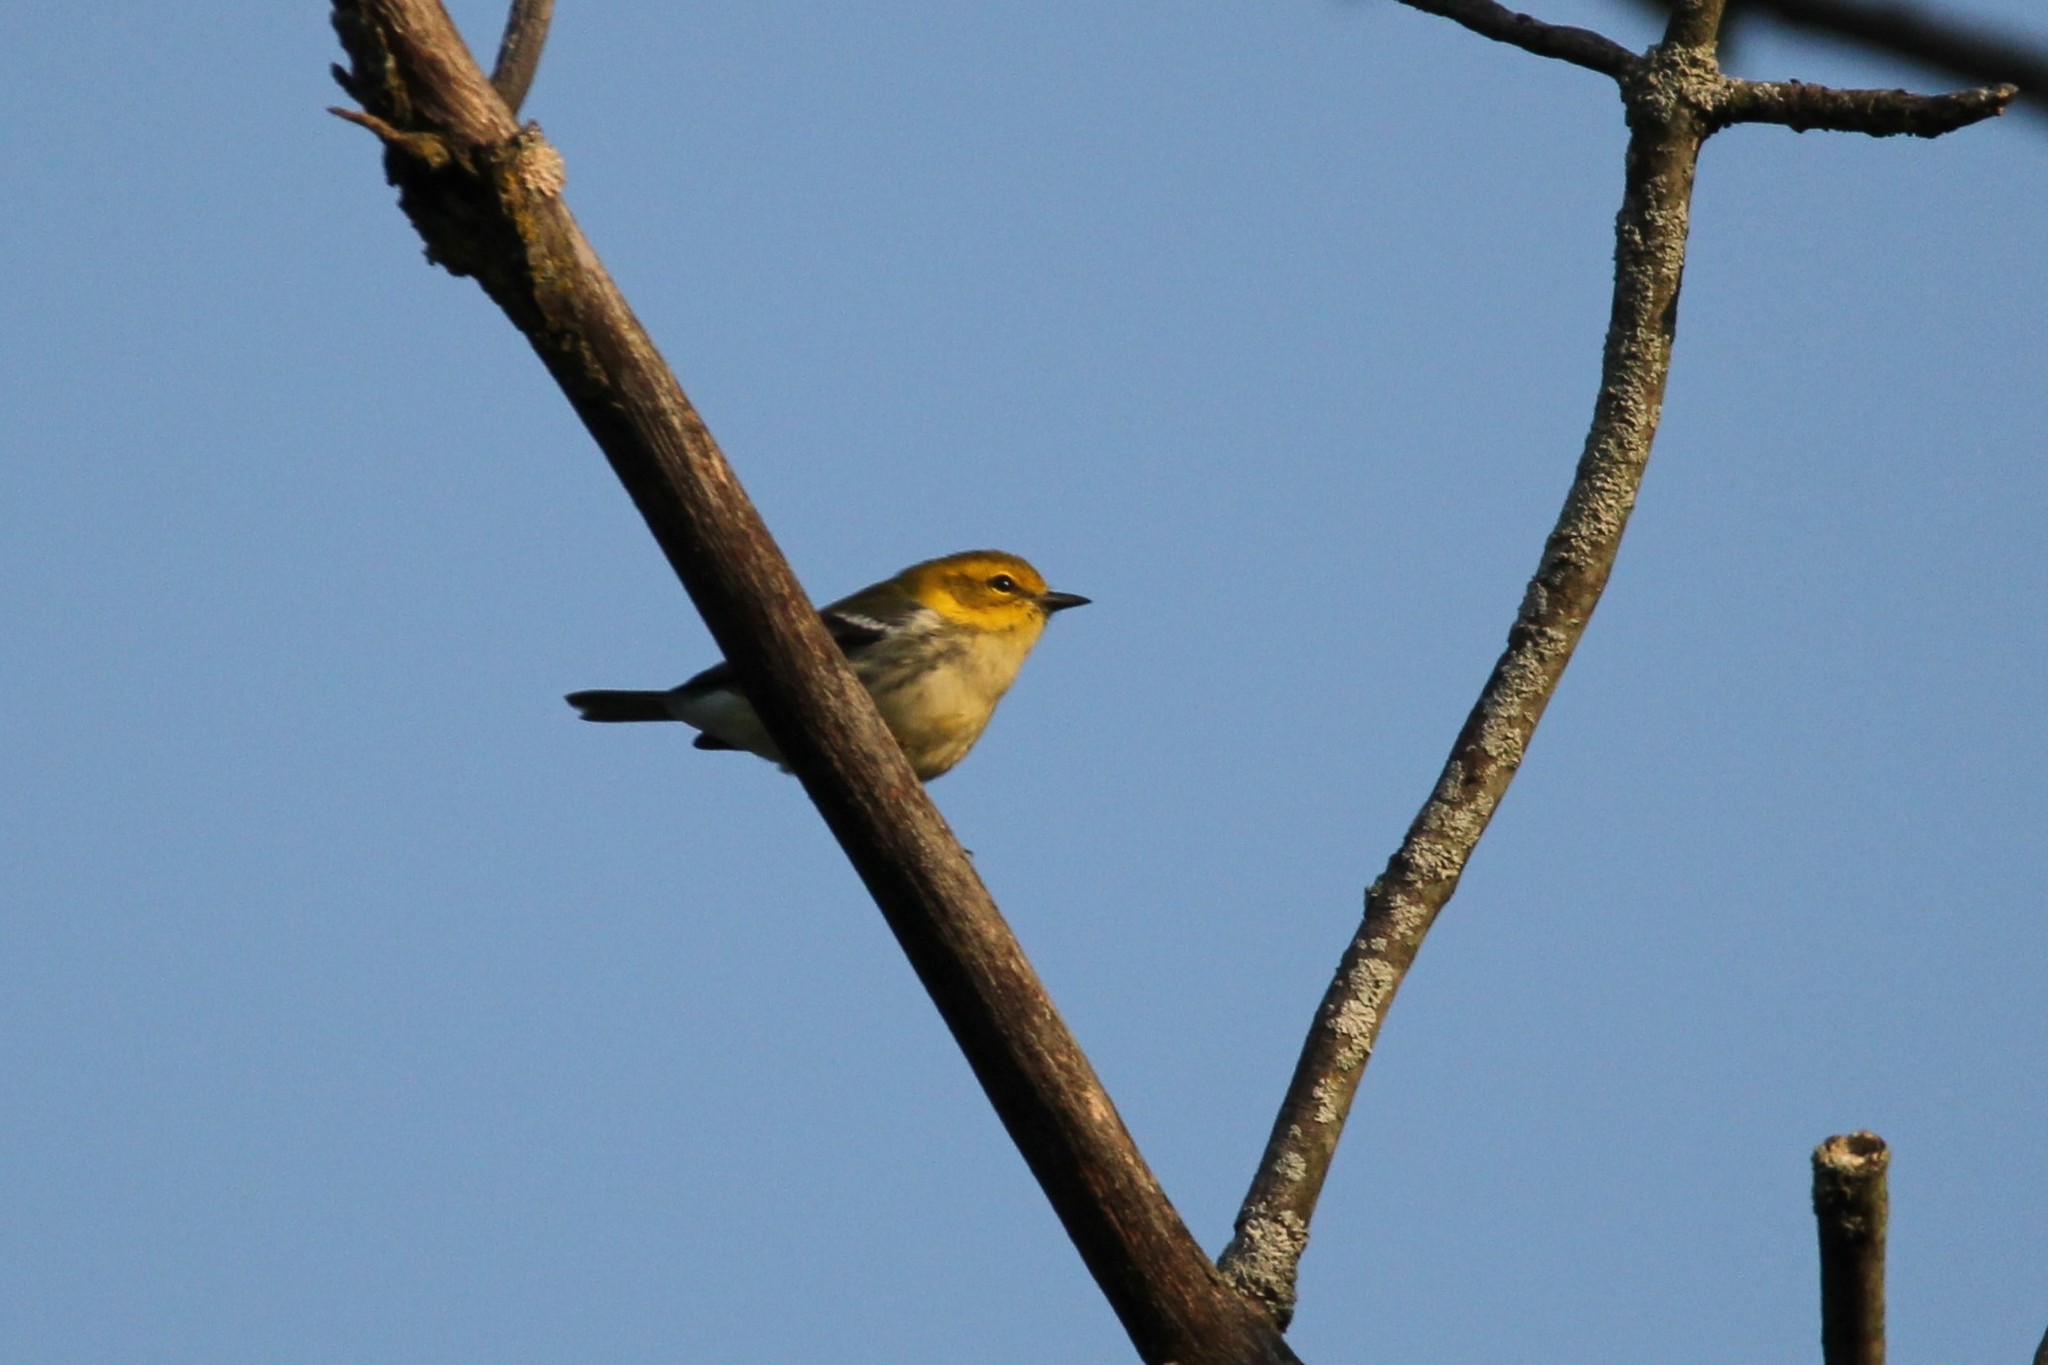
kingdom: Animalia
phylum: Chordata
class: Aves
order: Passeriformes
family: Parulidae
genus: Setophaga
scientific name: Setophaga virens
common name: Black-throated green warbler
